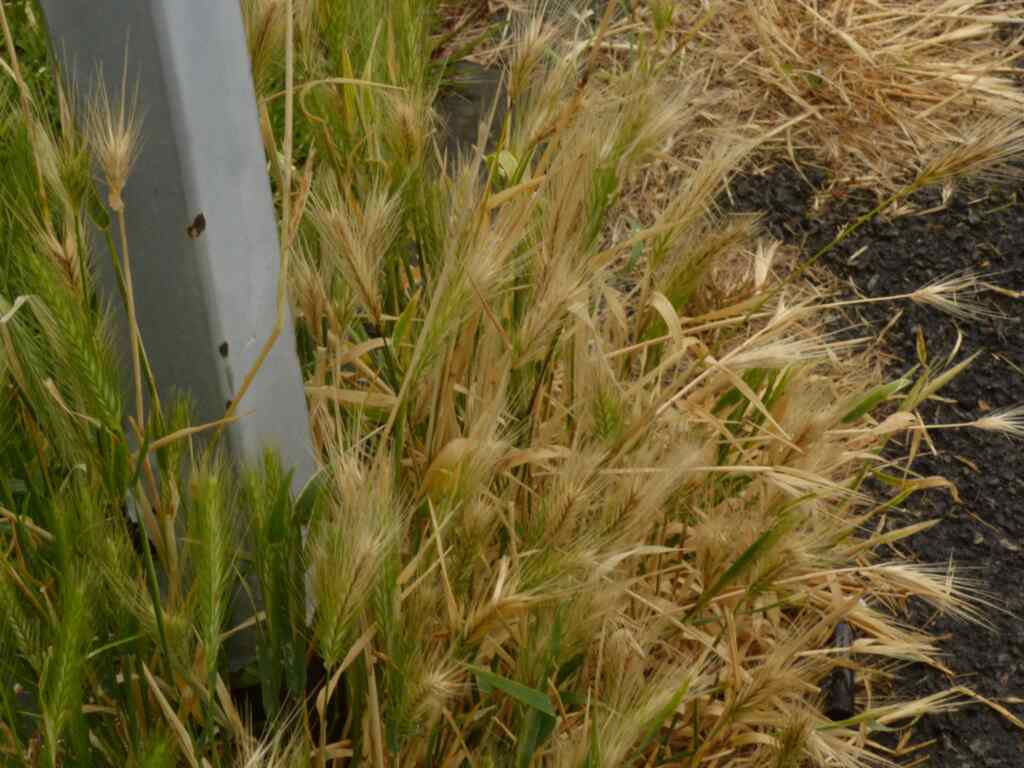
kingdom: Plantae
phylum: Tracheophyta
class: Liliopsida
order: Poales
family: Poaceae
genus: Hordeum
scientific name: Hordeum murinum
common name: Wall barley
